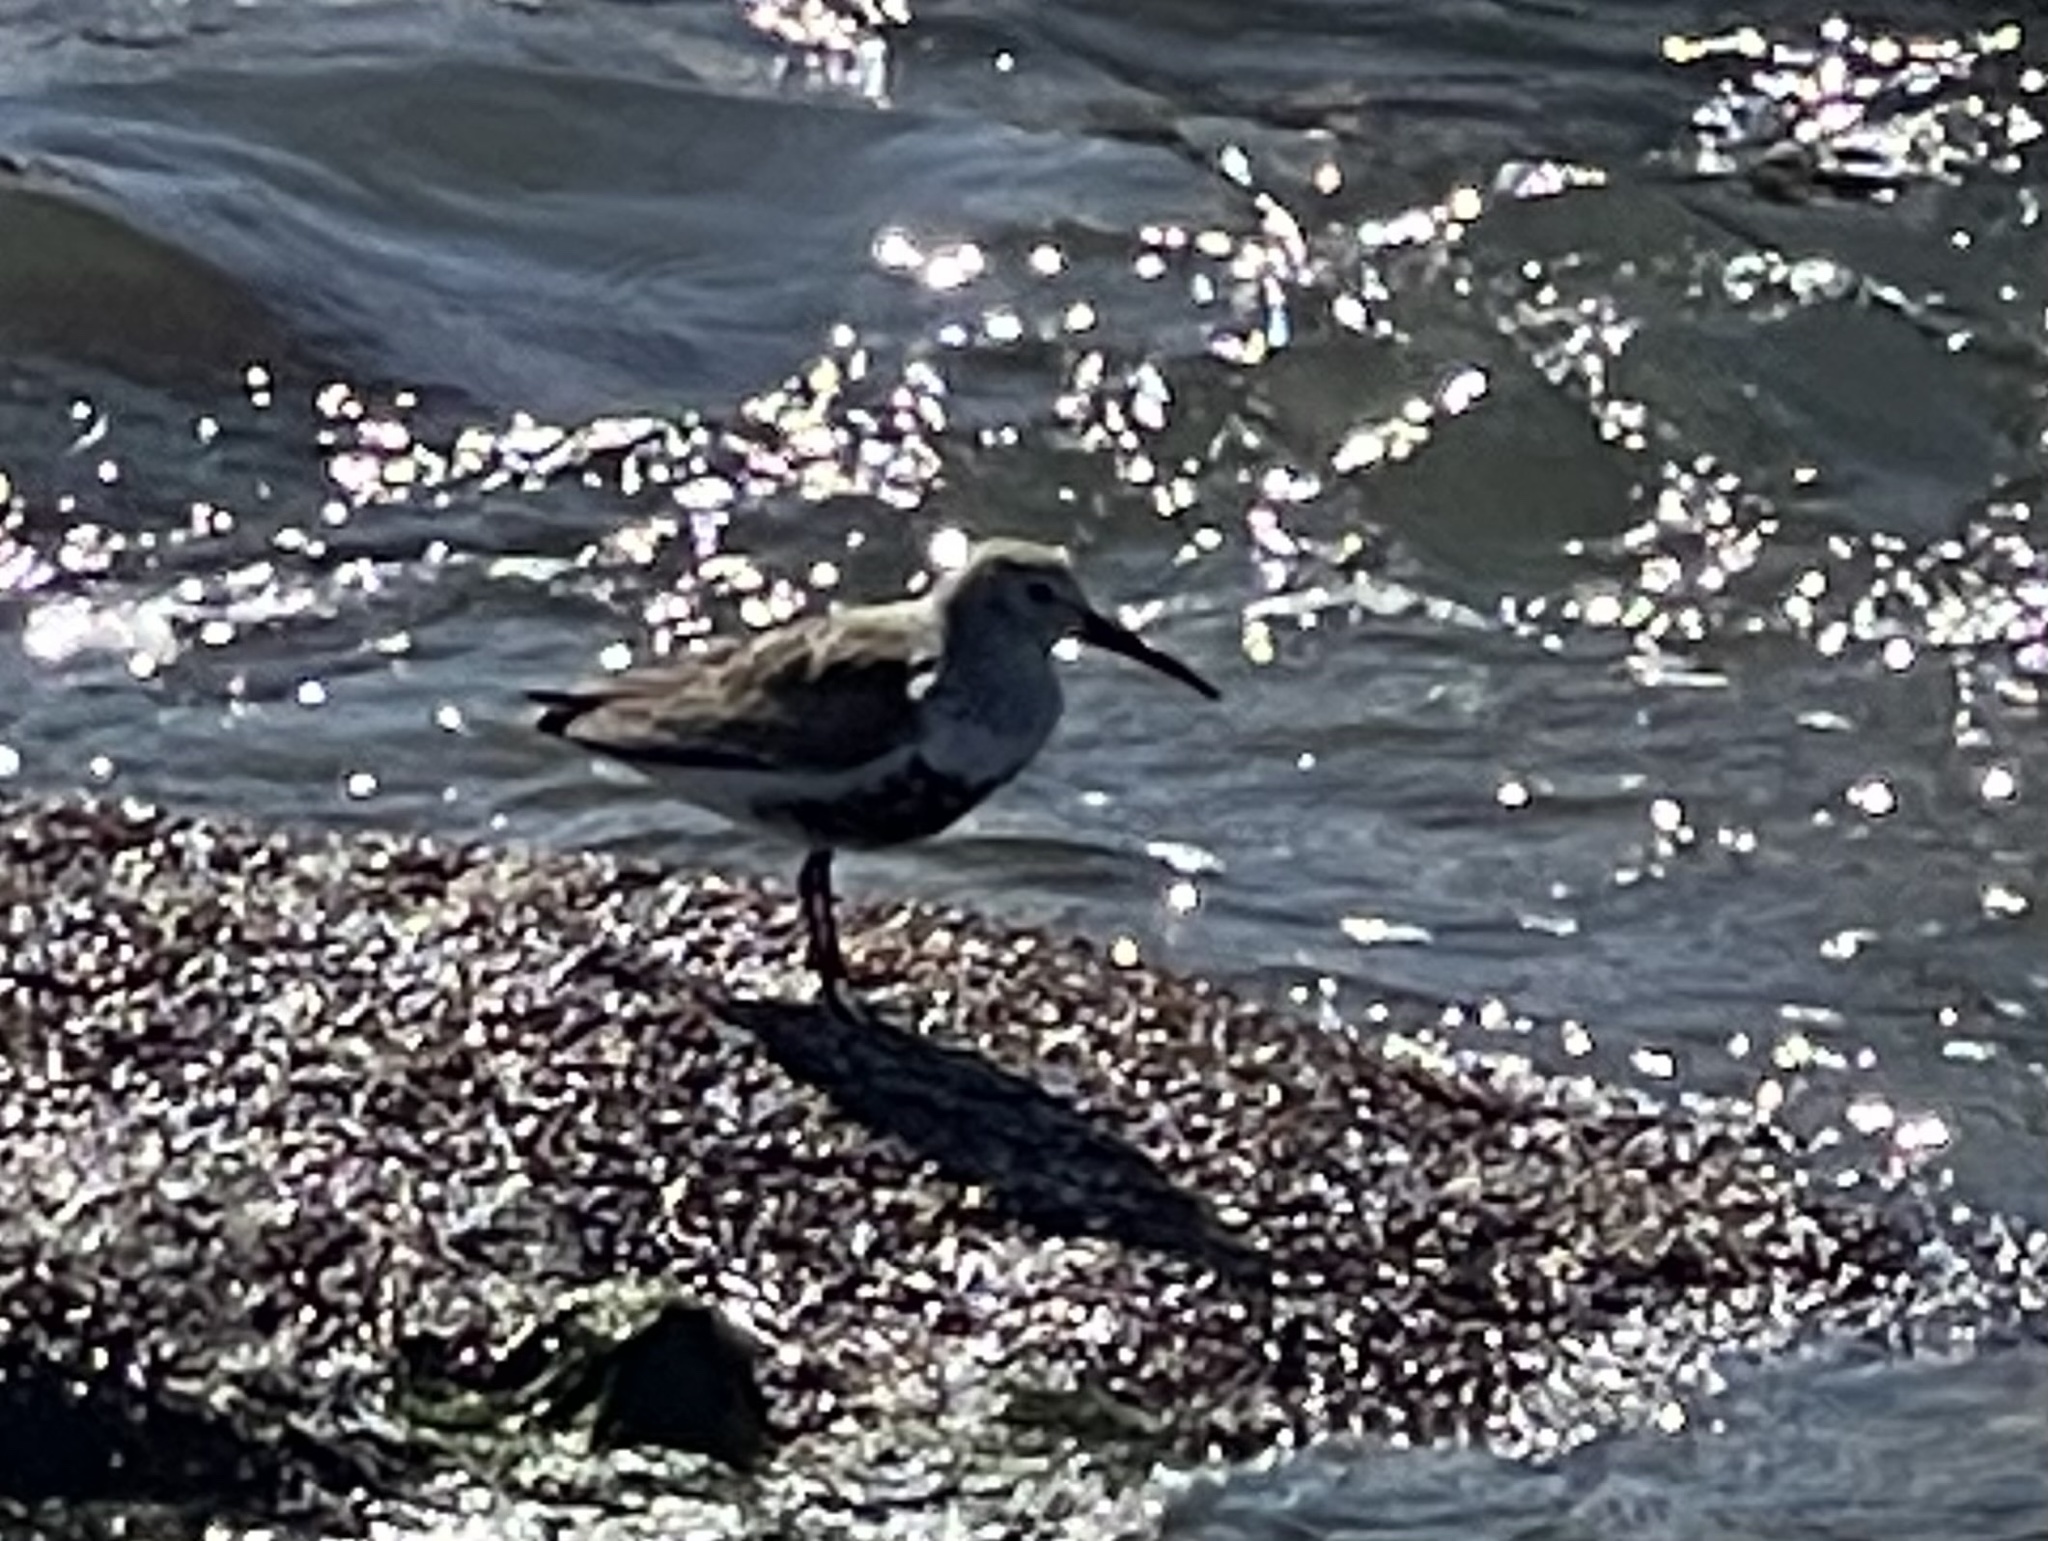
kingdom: Animalia
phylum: Chordata
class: Aves
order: Charadriiformes
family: Scolopacidae
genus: Calidris
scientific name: Calidris alpina
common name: Dunlin
